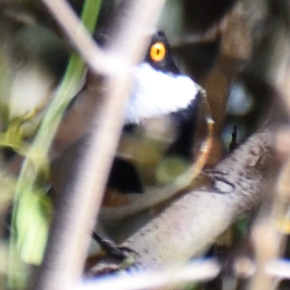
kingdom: Animalia
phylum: Chordata
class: Aves
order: Passeriformes
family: Platysteiridae
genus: Batis
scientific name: Batis capensis
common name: Cape batis
